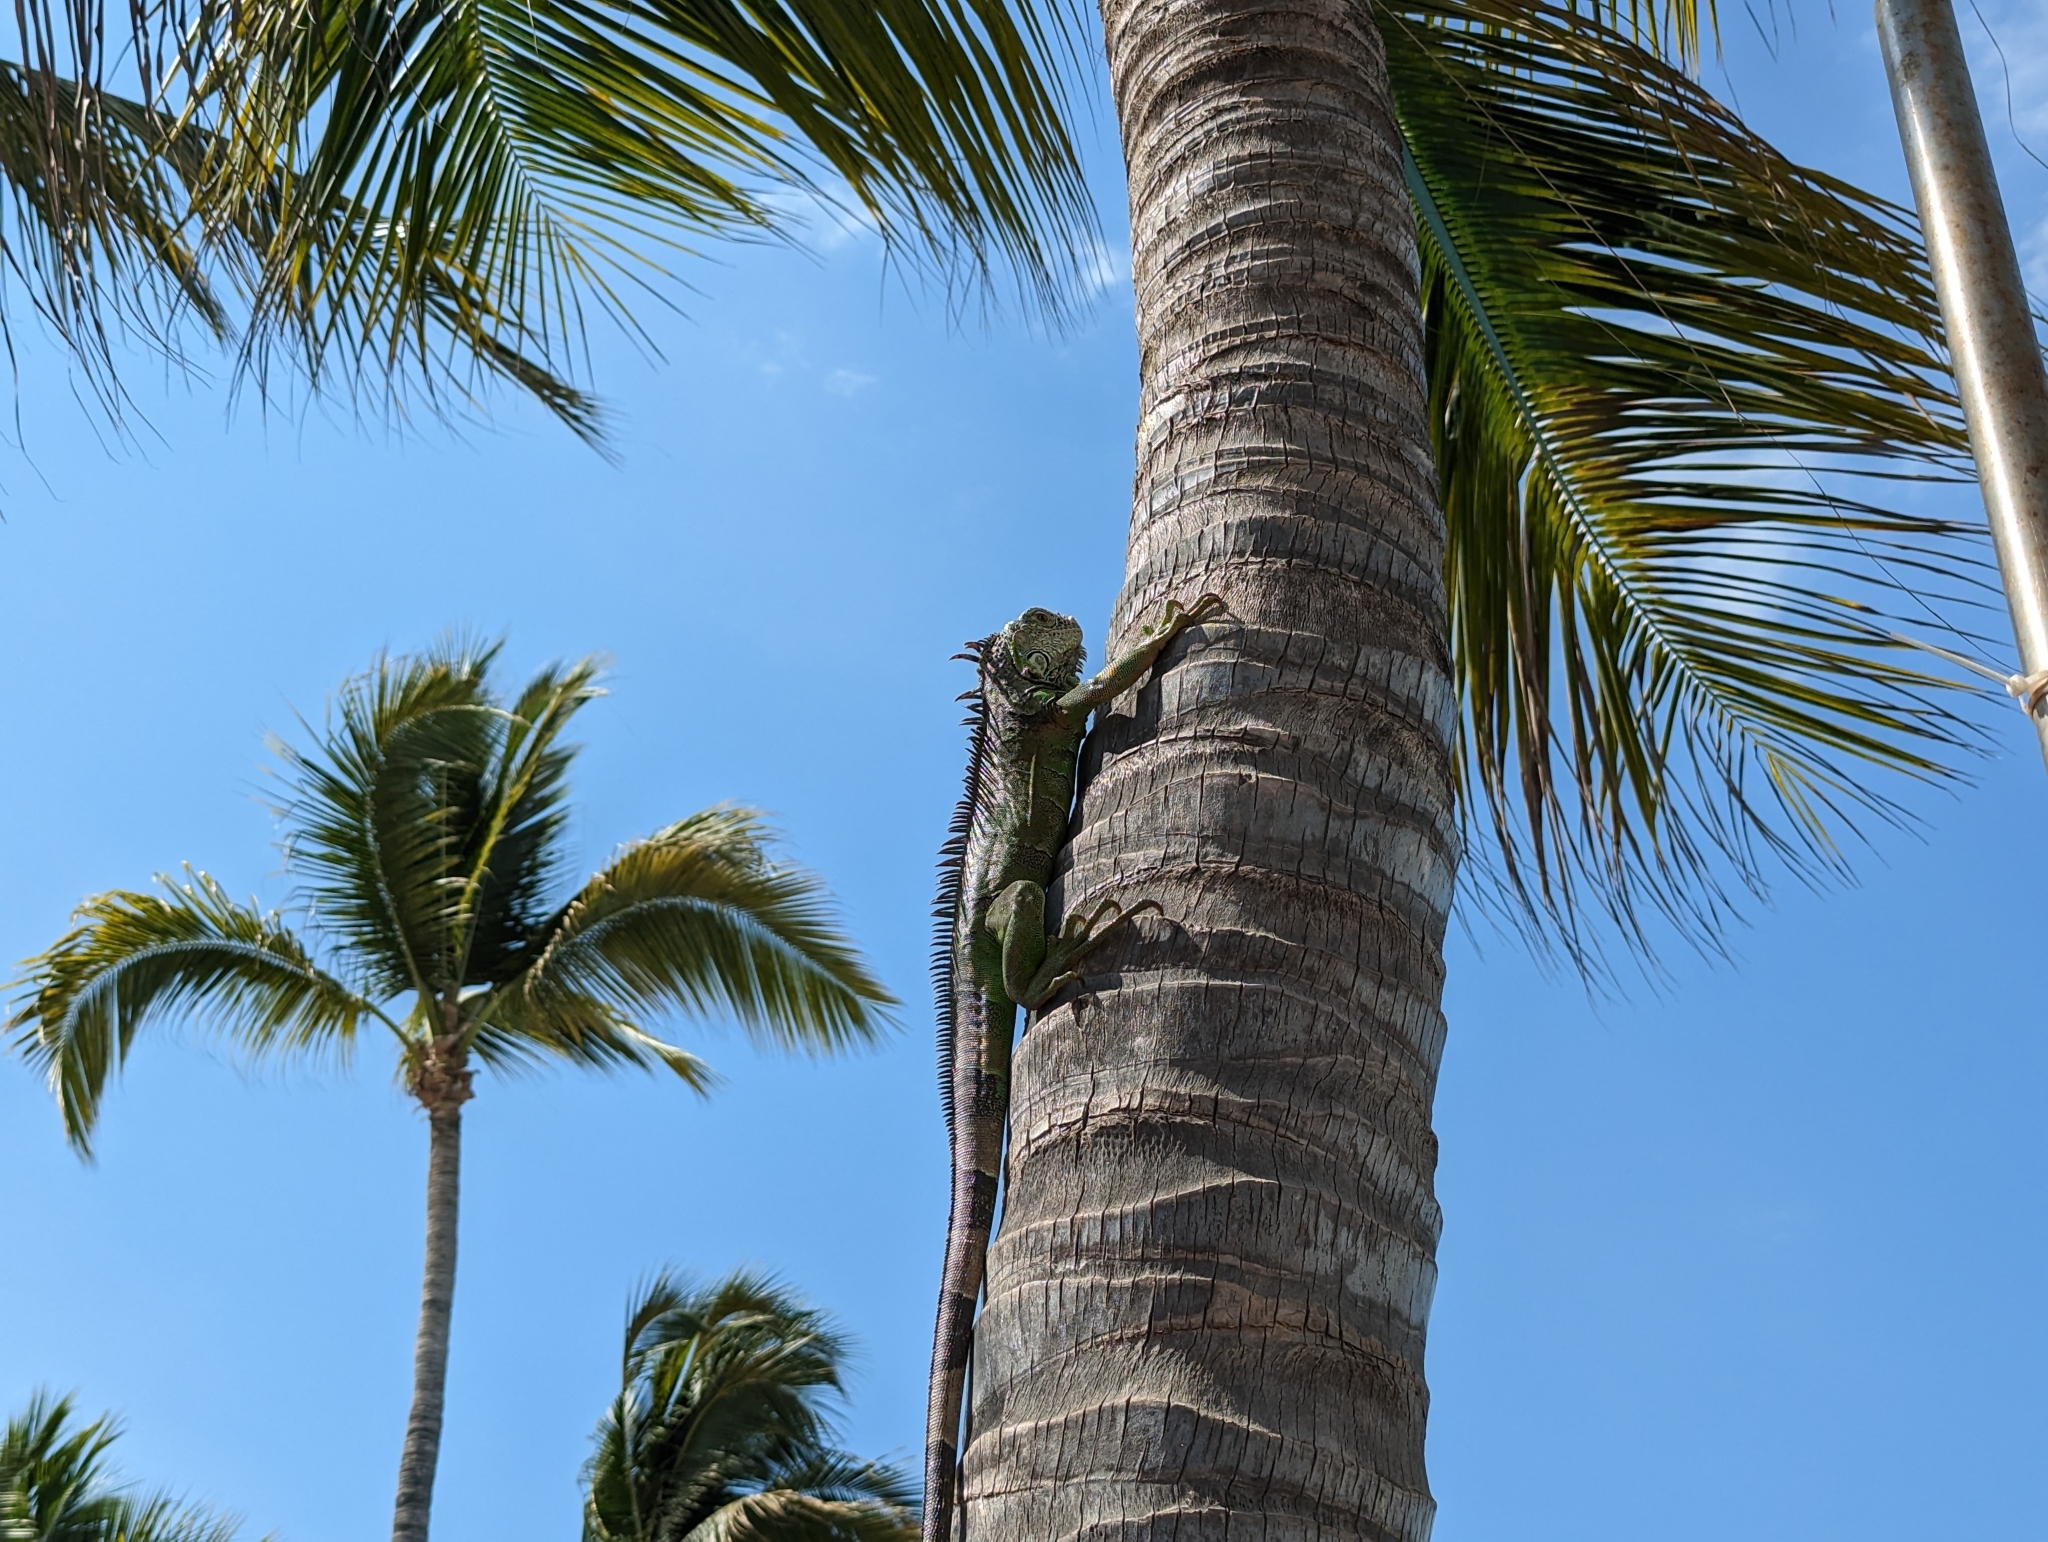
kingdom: Animalia
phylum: Chordata
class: Squamata
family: Iguanidae
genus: Iguana
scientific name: Iguana iguana
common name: Green iguana
